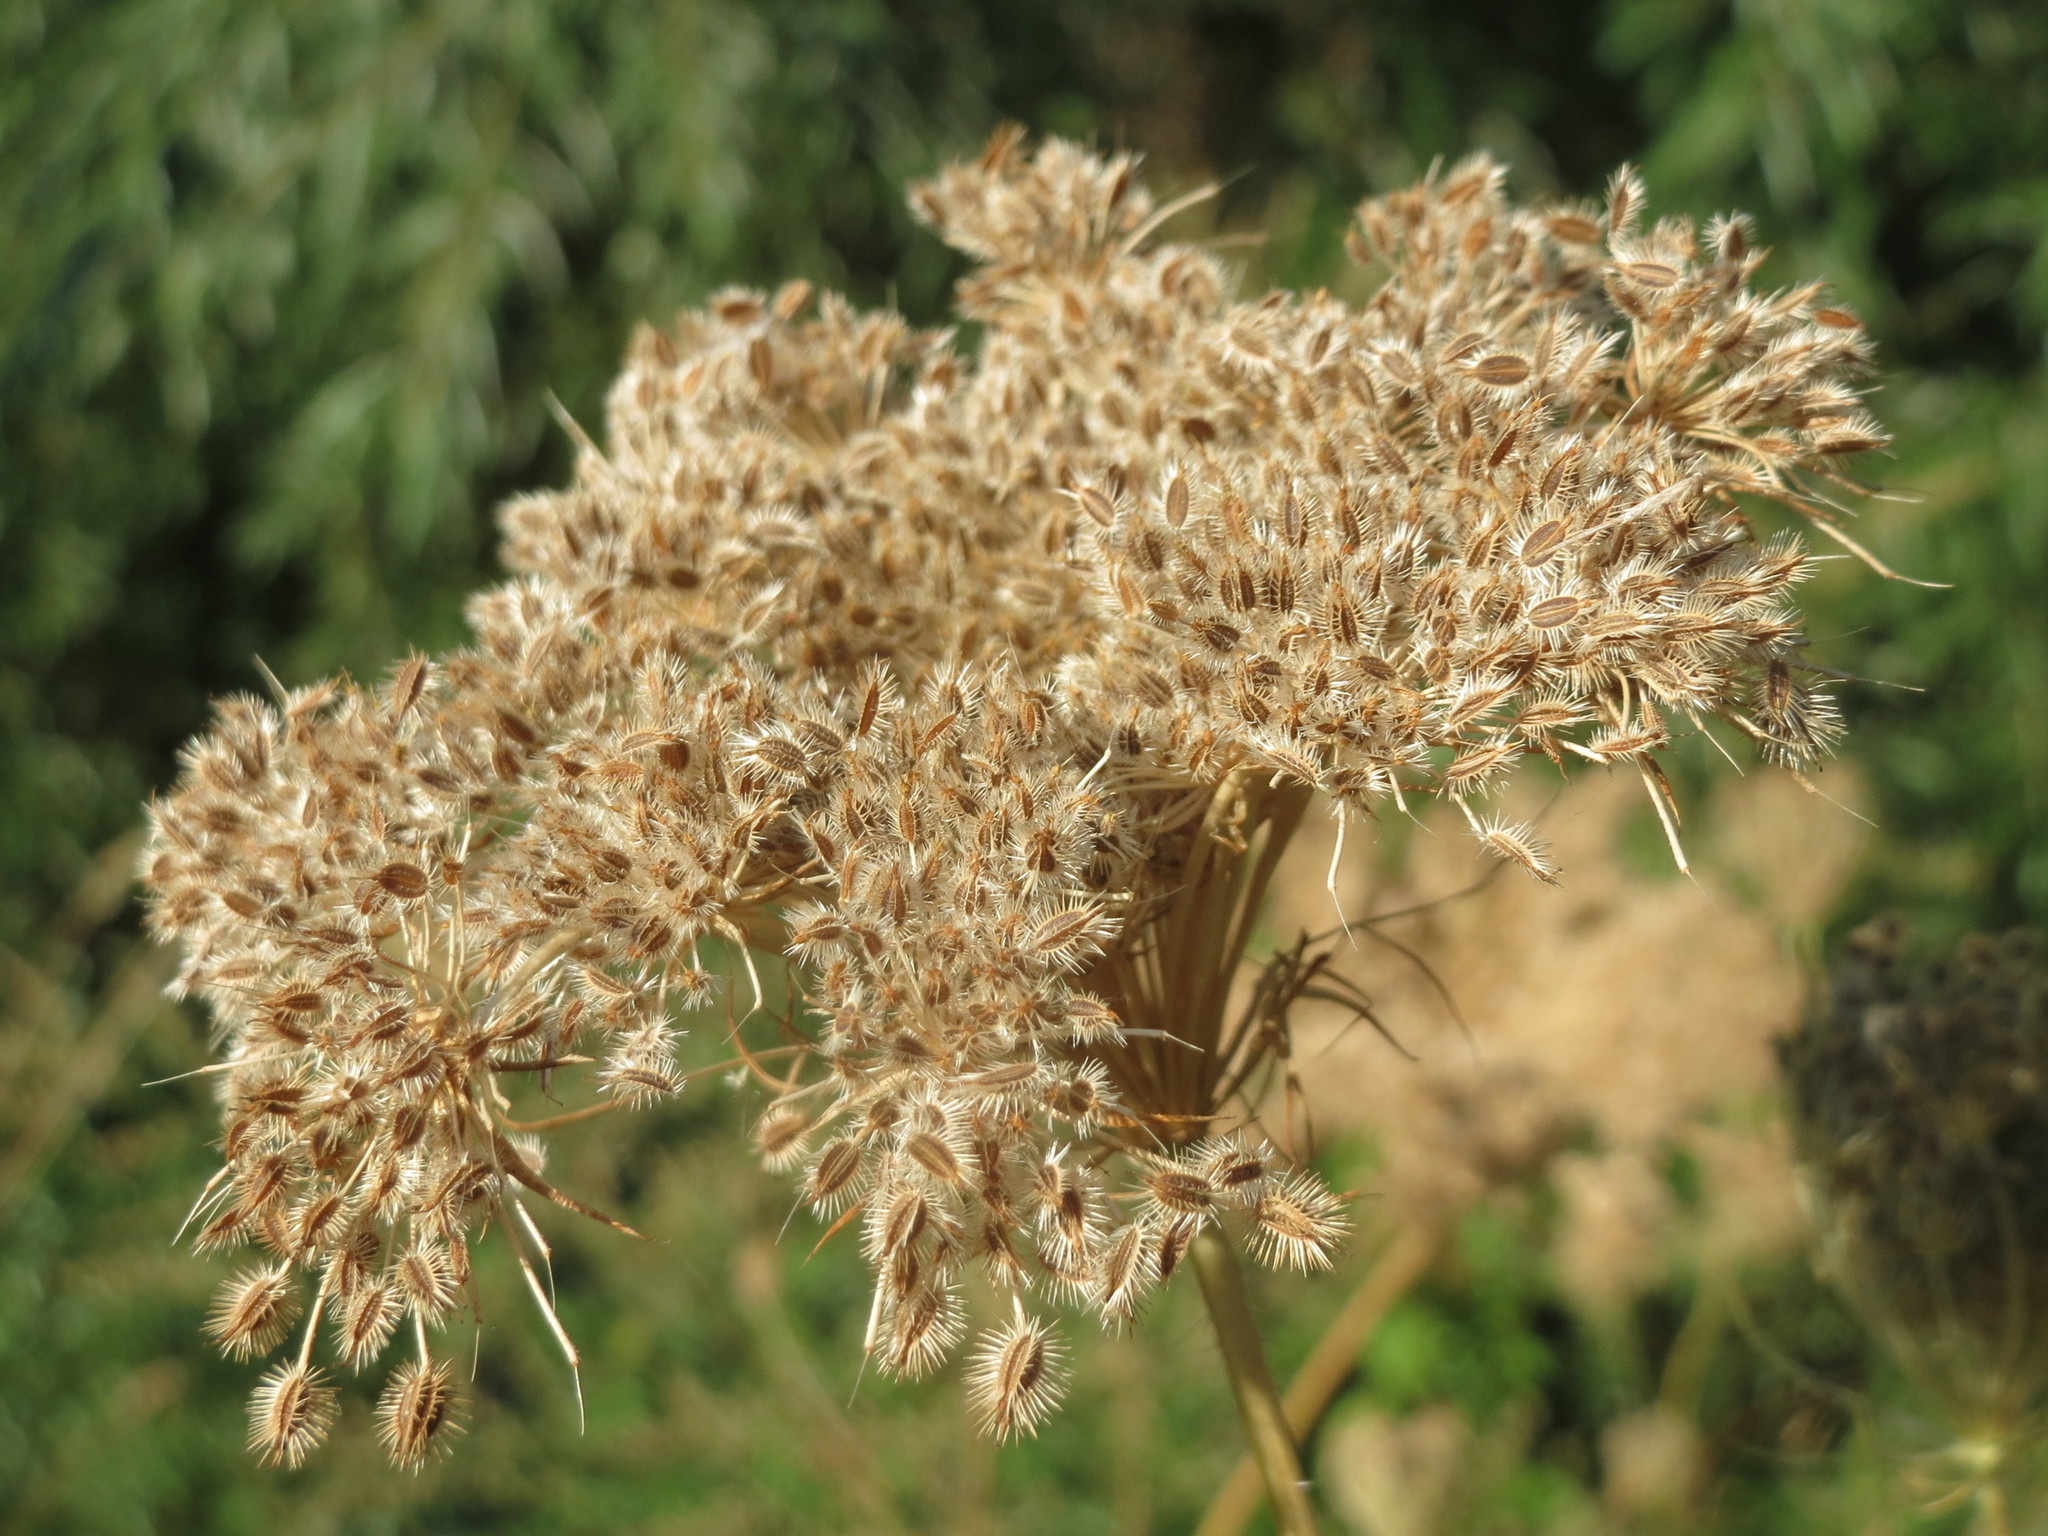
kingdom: Plantae
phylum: Tracheophyta
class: Magnoliopsida
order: Apiales
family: Apiaceae
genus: Daucus
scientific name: Daucus carota
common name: Wild carrot
